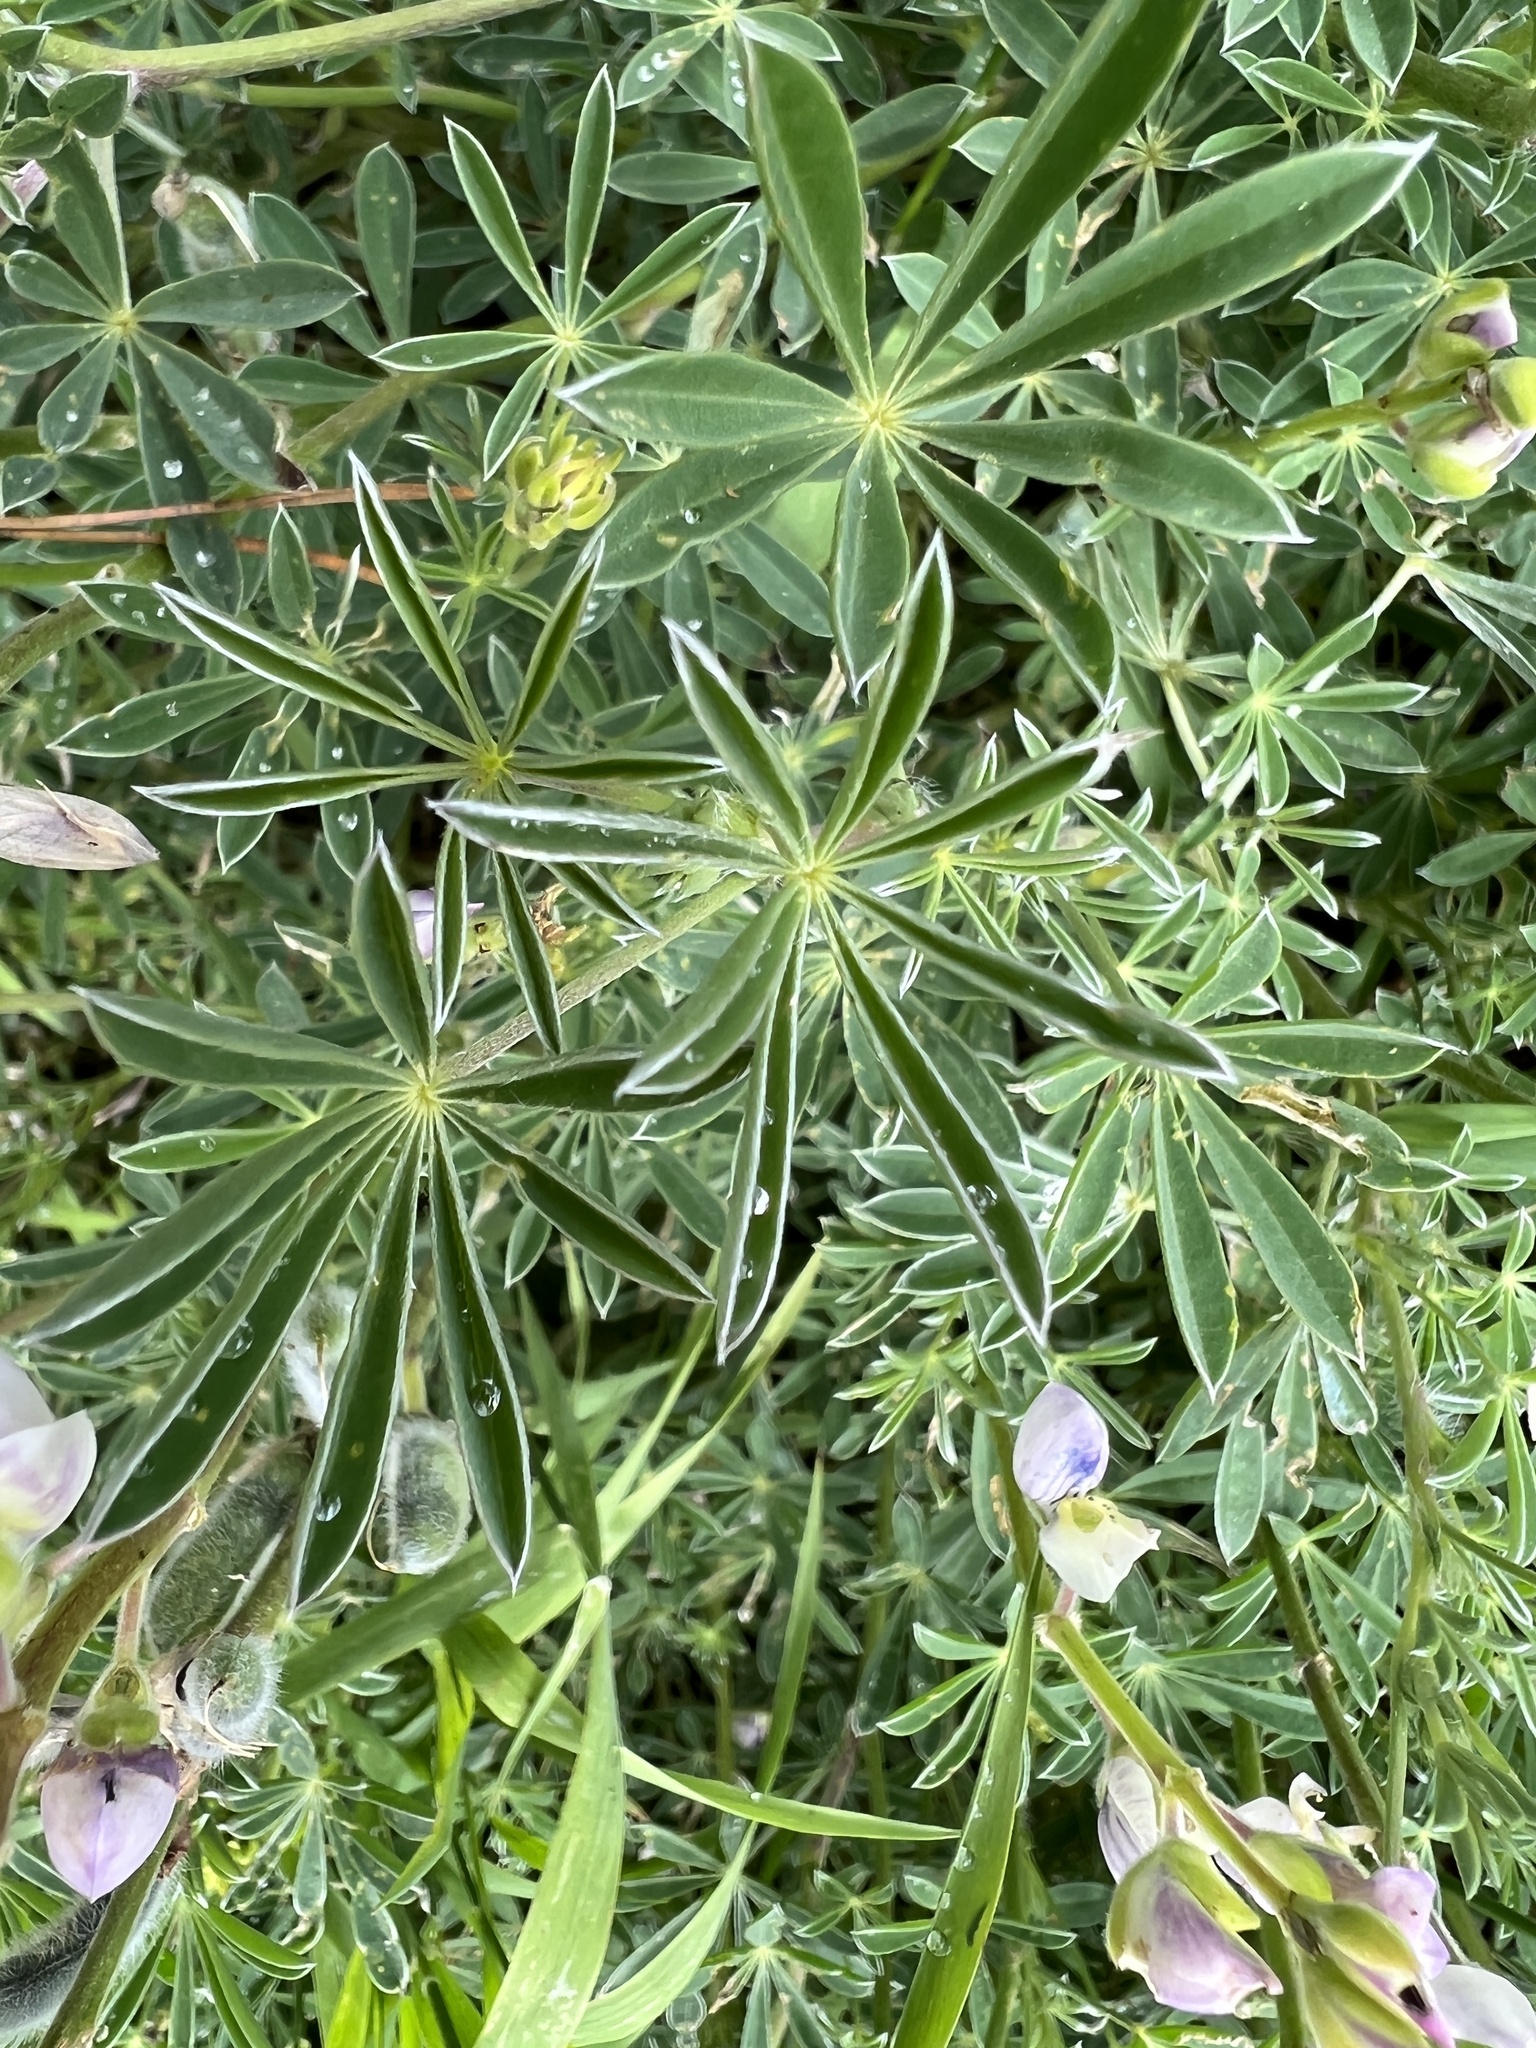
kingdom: Plantae
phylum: Tracheophyta
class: Magnoliopsida
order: Fabales
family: Fabaceae
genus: Lupinus
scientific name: Lupinus arboreus
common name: Yellow bush lupine
